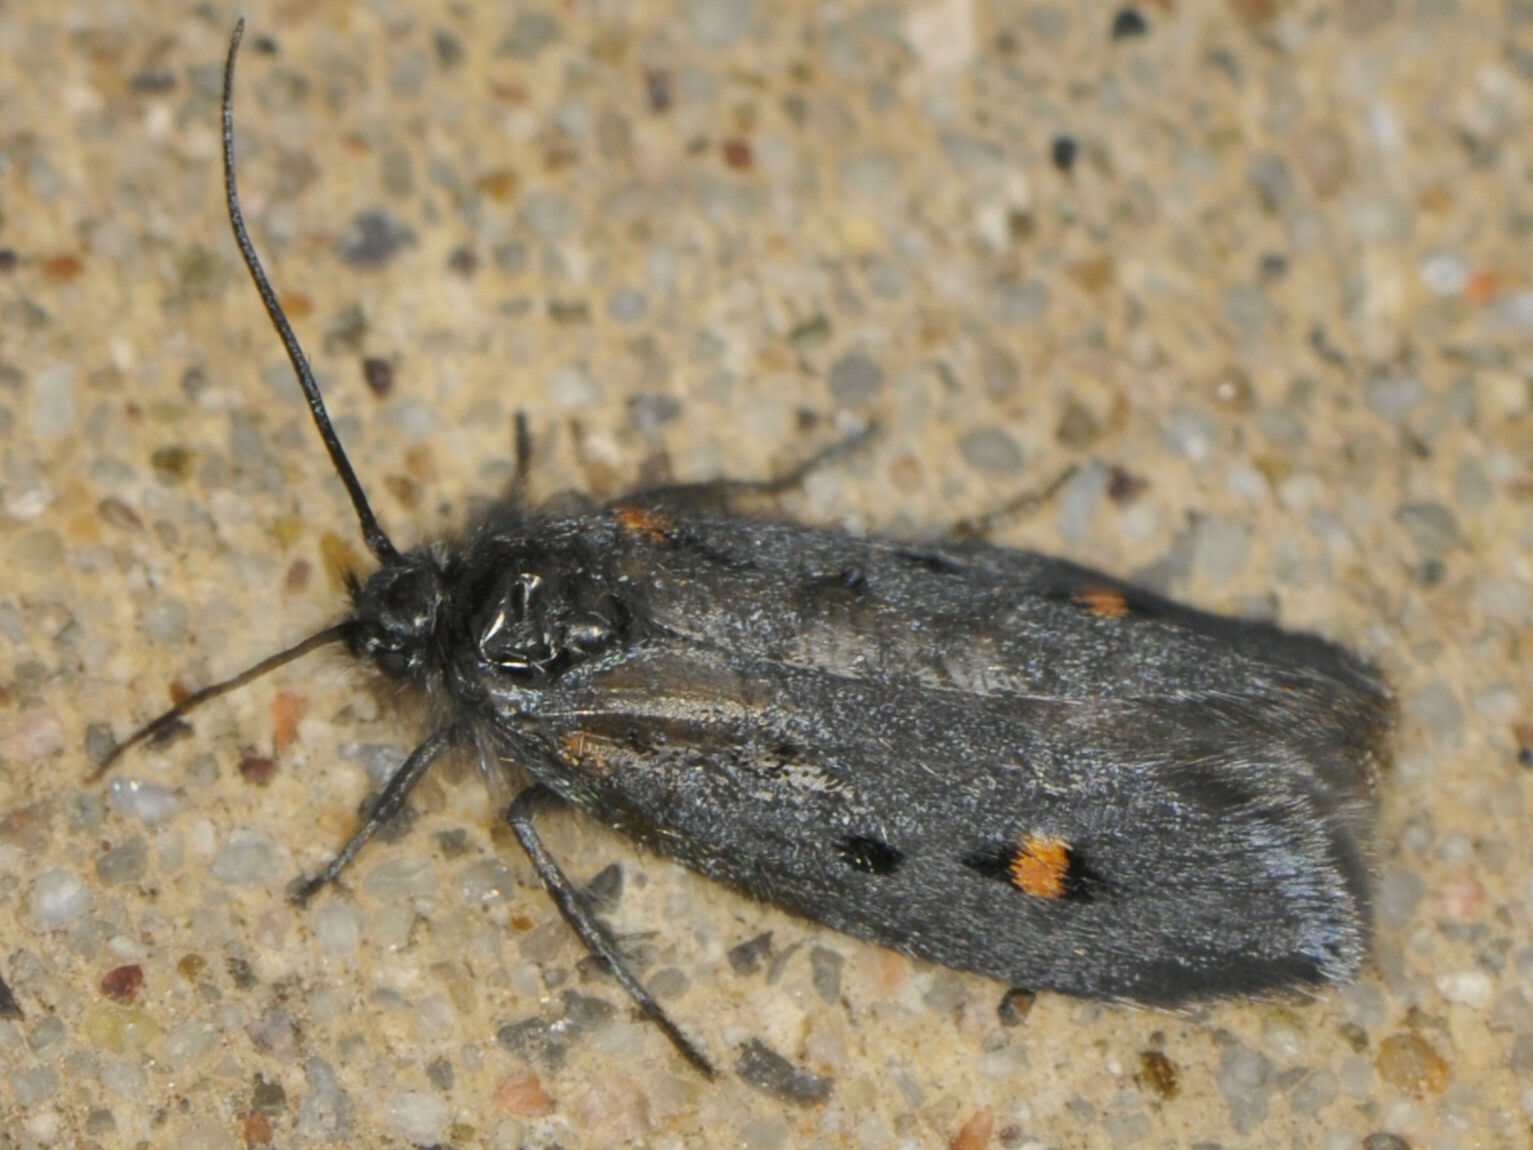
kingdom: Animalia
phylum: Arthropoda
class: Insecta
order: Lepidoptera
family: Ethmiidae
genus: Ethmia
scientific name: Ethmia lassenella
